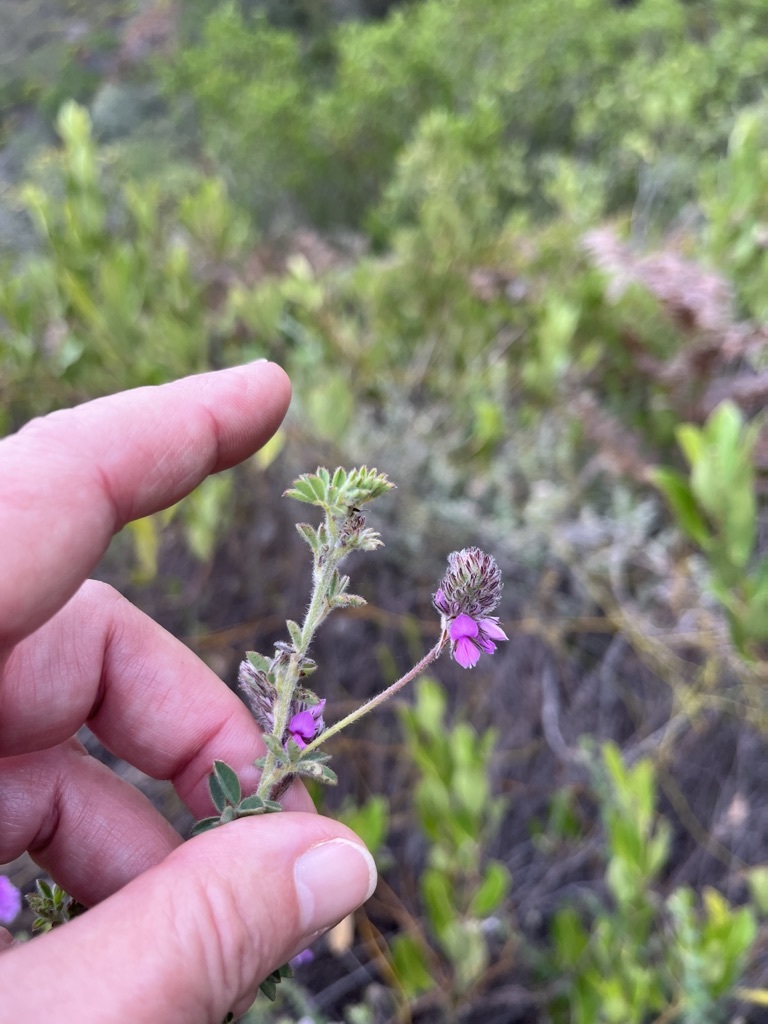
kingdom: Plantae
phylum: Tracheophyta
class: Magnoliopsida
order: Fabales
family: Fabaceae
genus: Indigofera
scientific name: Indigofera alopecuroides
